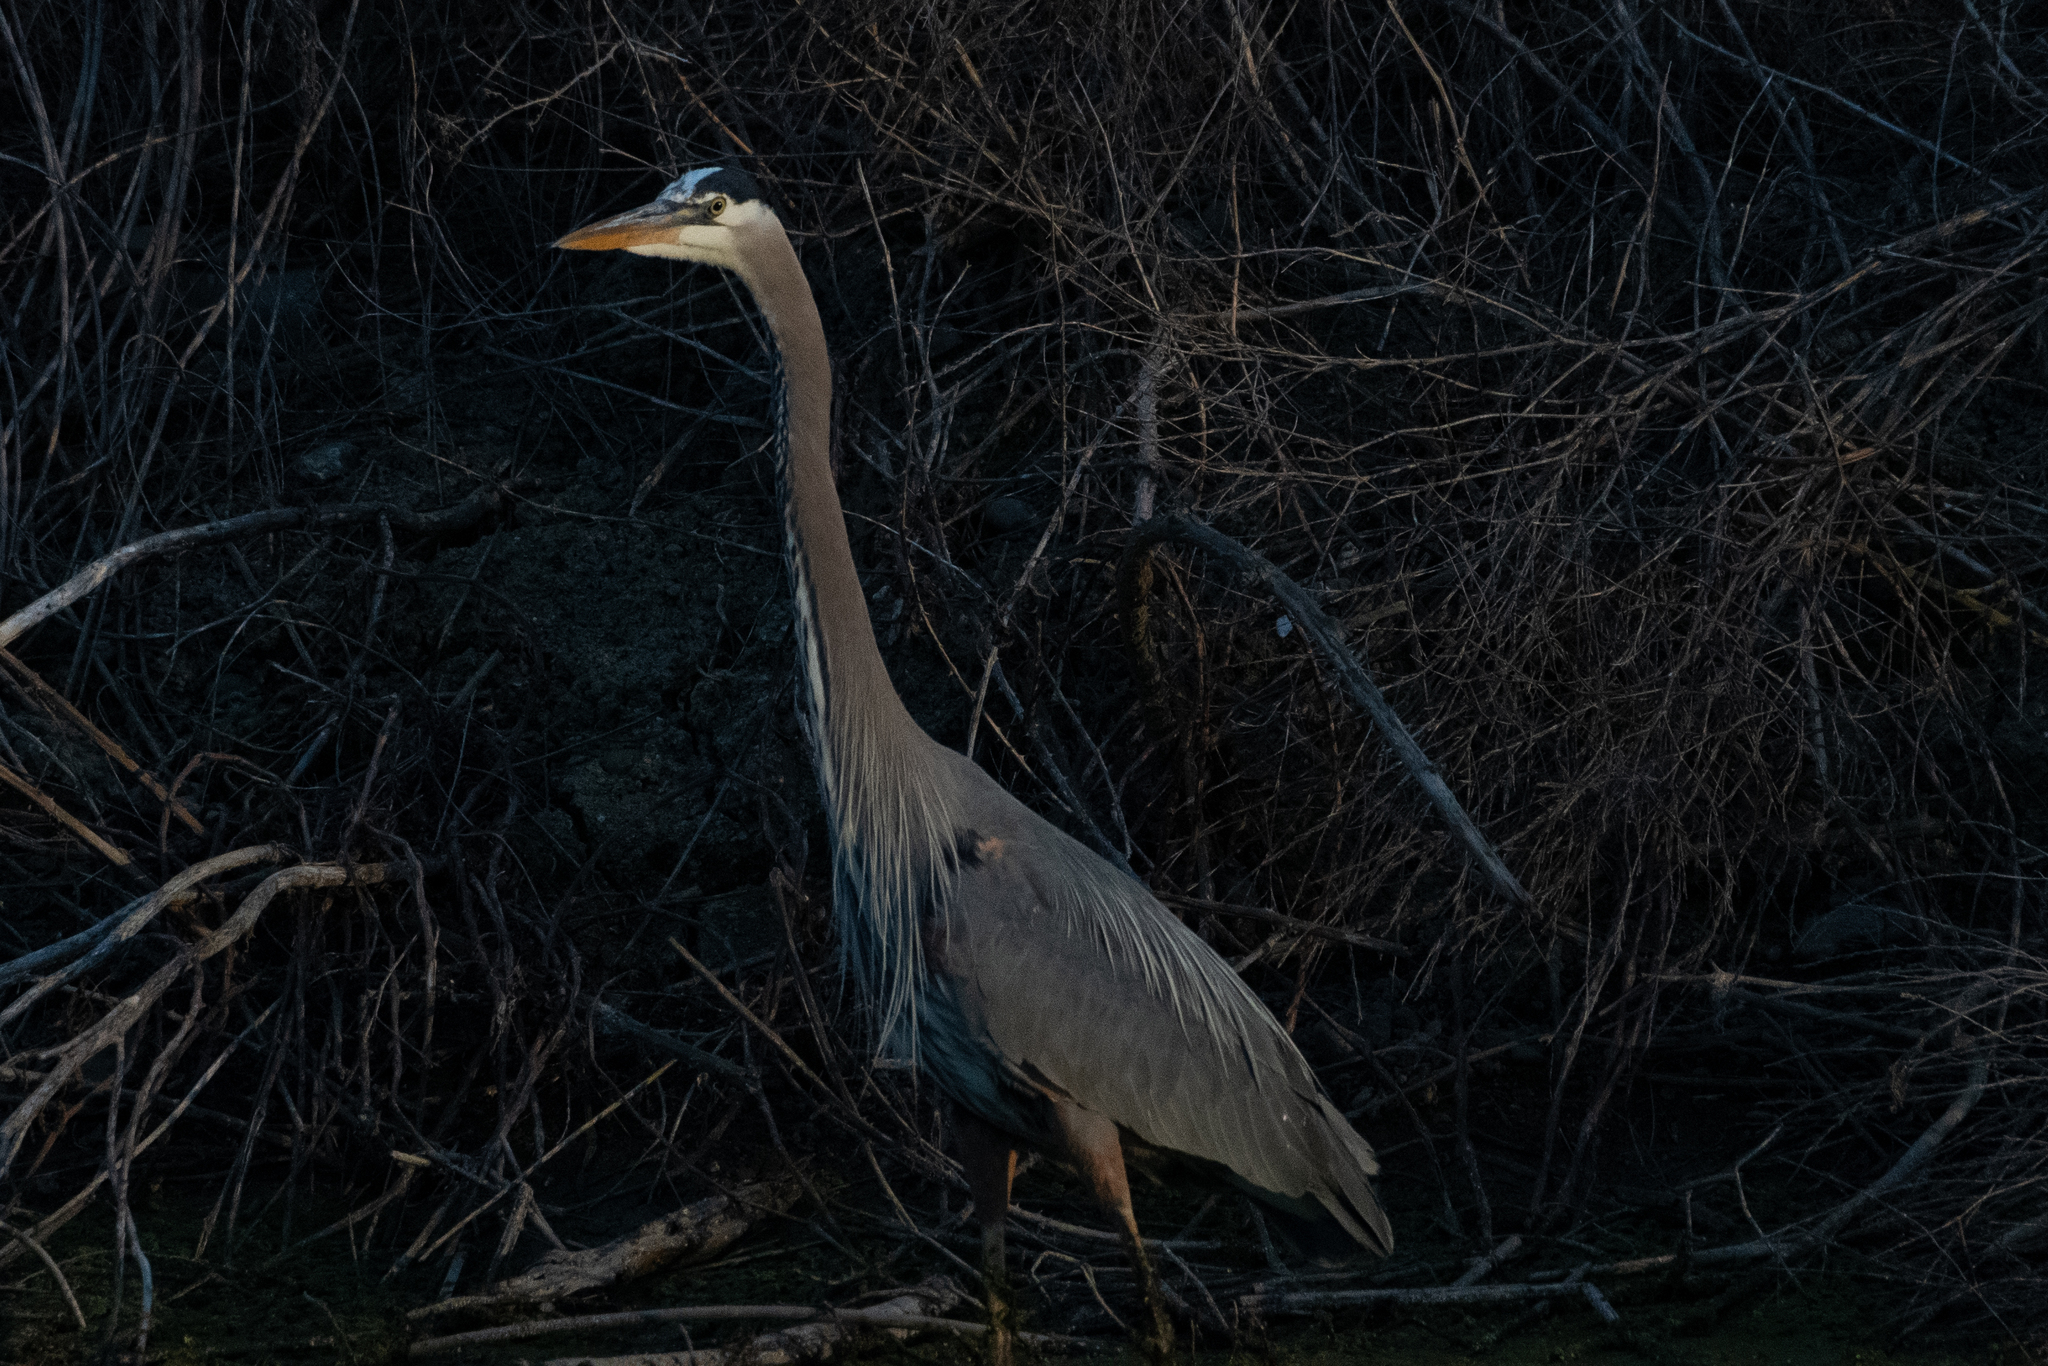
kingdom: Animalia
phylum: Chordata
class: Aves
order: Pelecaniformes
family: Ardeidae
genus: Ardea
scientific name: Ardea herodias
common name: Great blue heron
